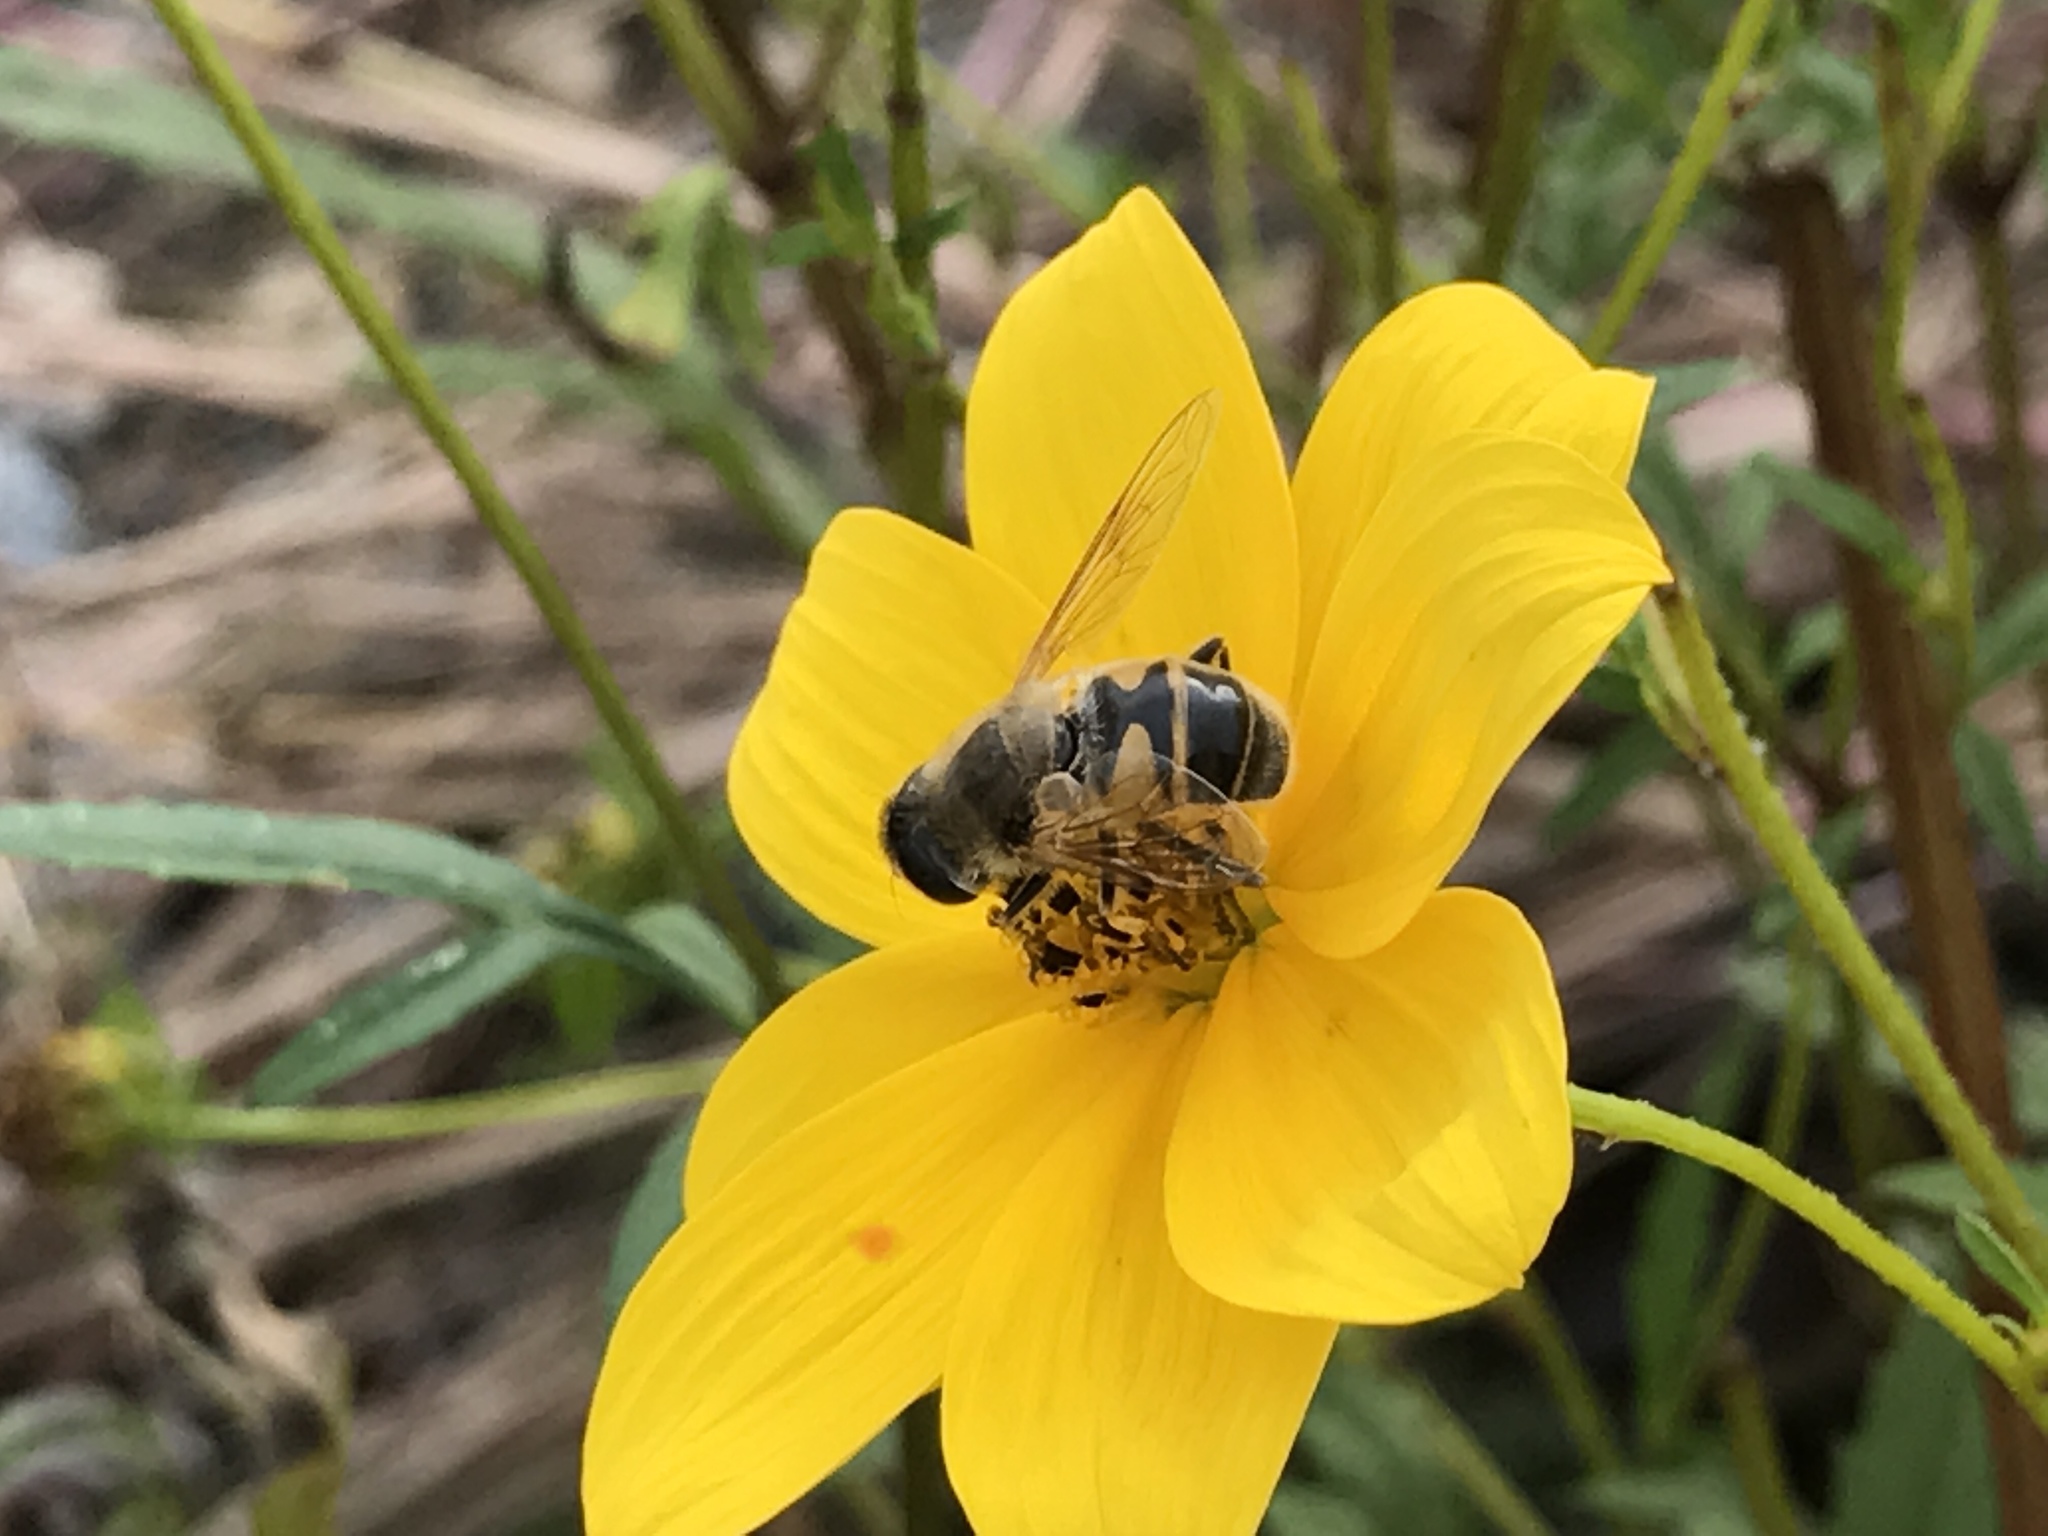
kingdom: Animalia
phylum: Arthropoda
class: Insecta
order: Diptera
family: Syrphidae
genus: Eristalis
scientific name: Eristalis tenax
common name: Drone fly
